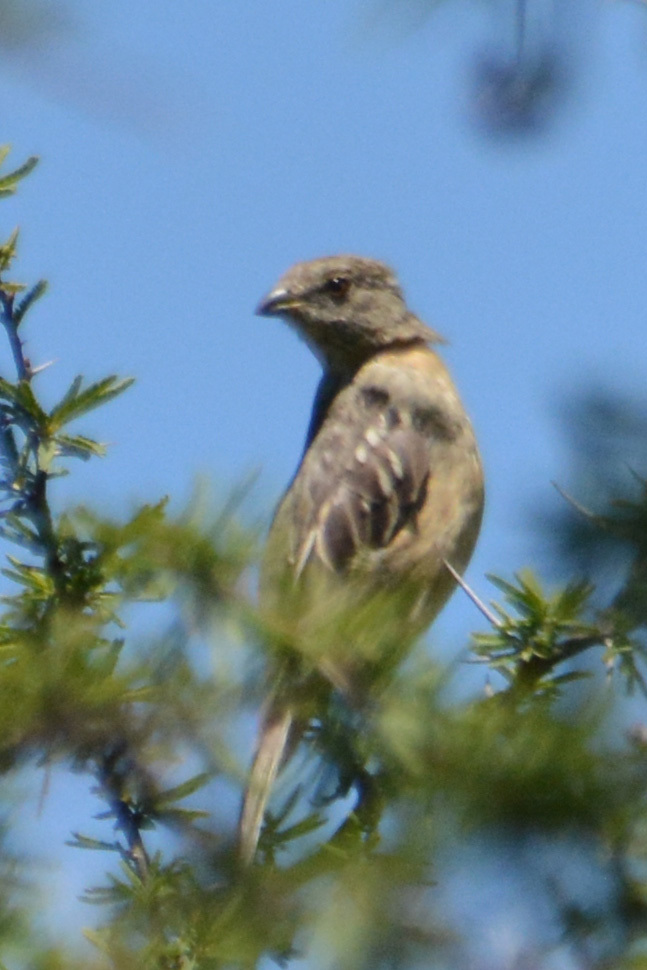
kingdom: Animalia
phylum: Chordata
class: Aves
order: Passeriformes
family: Cotingidae
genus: Phytotoma
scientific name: Phytotoma rutila
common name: White-tipped plantcutter
